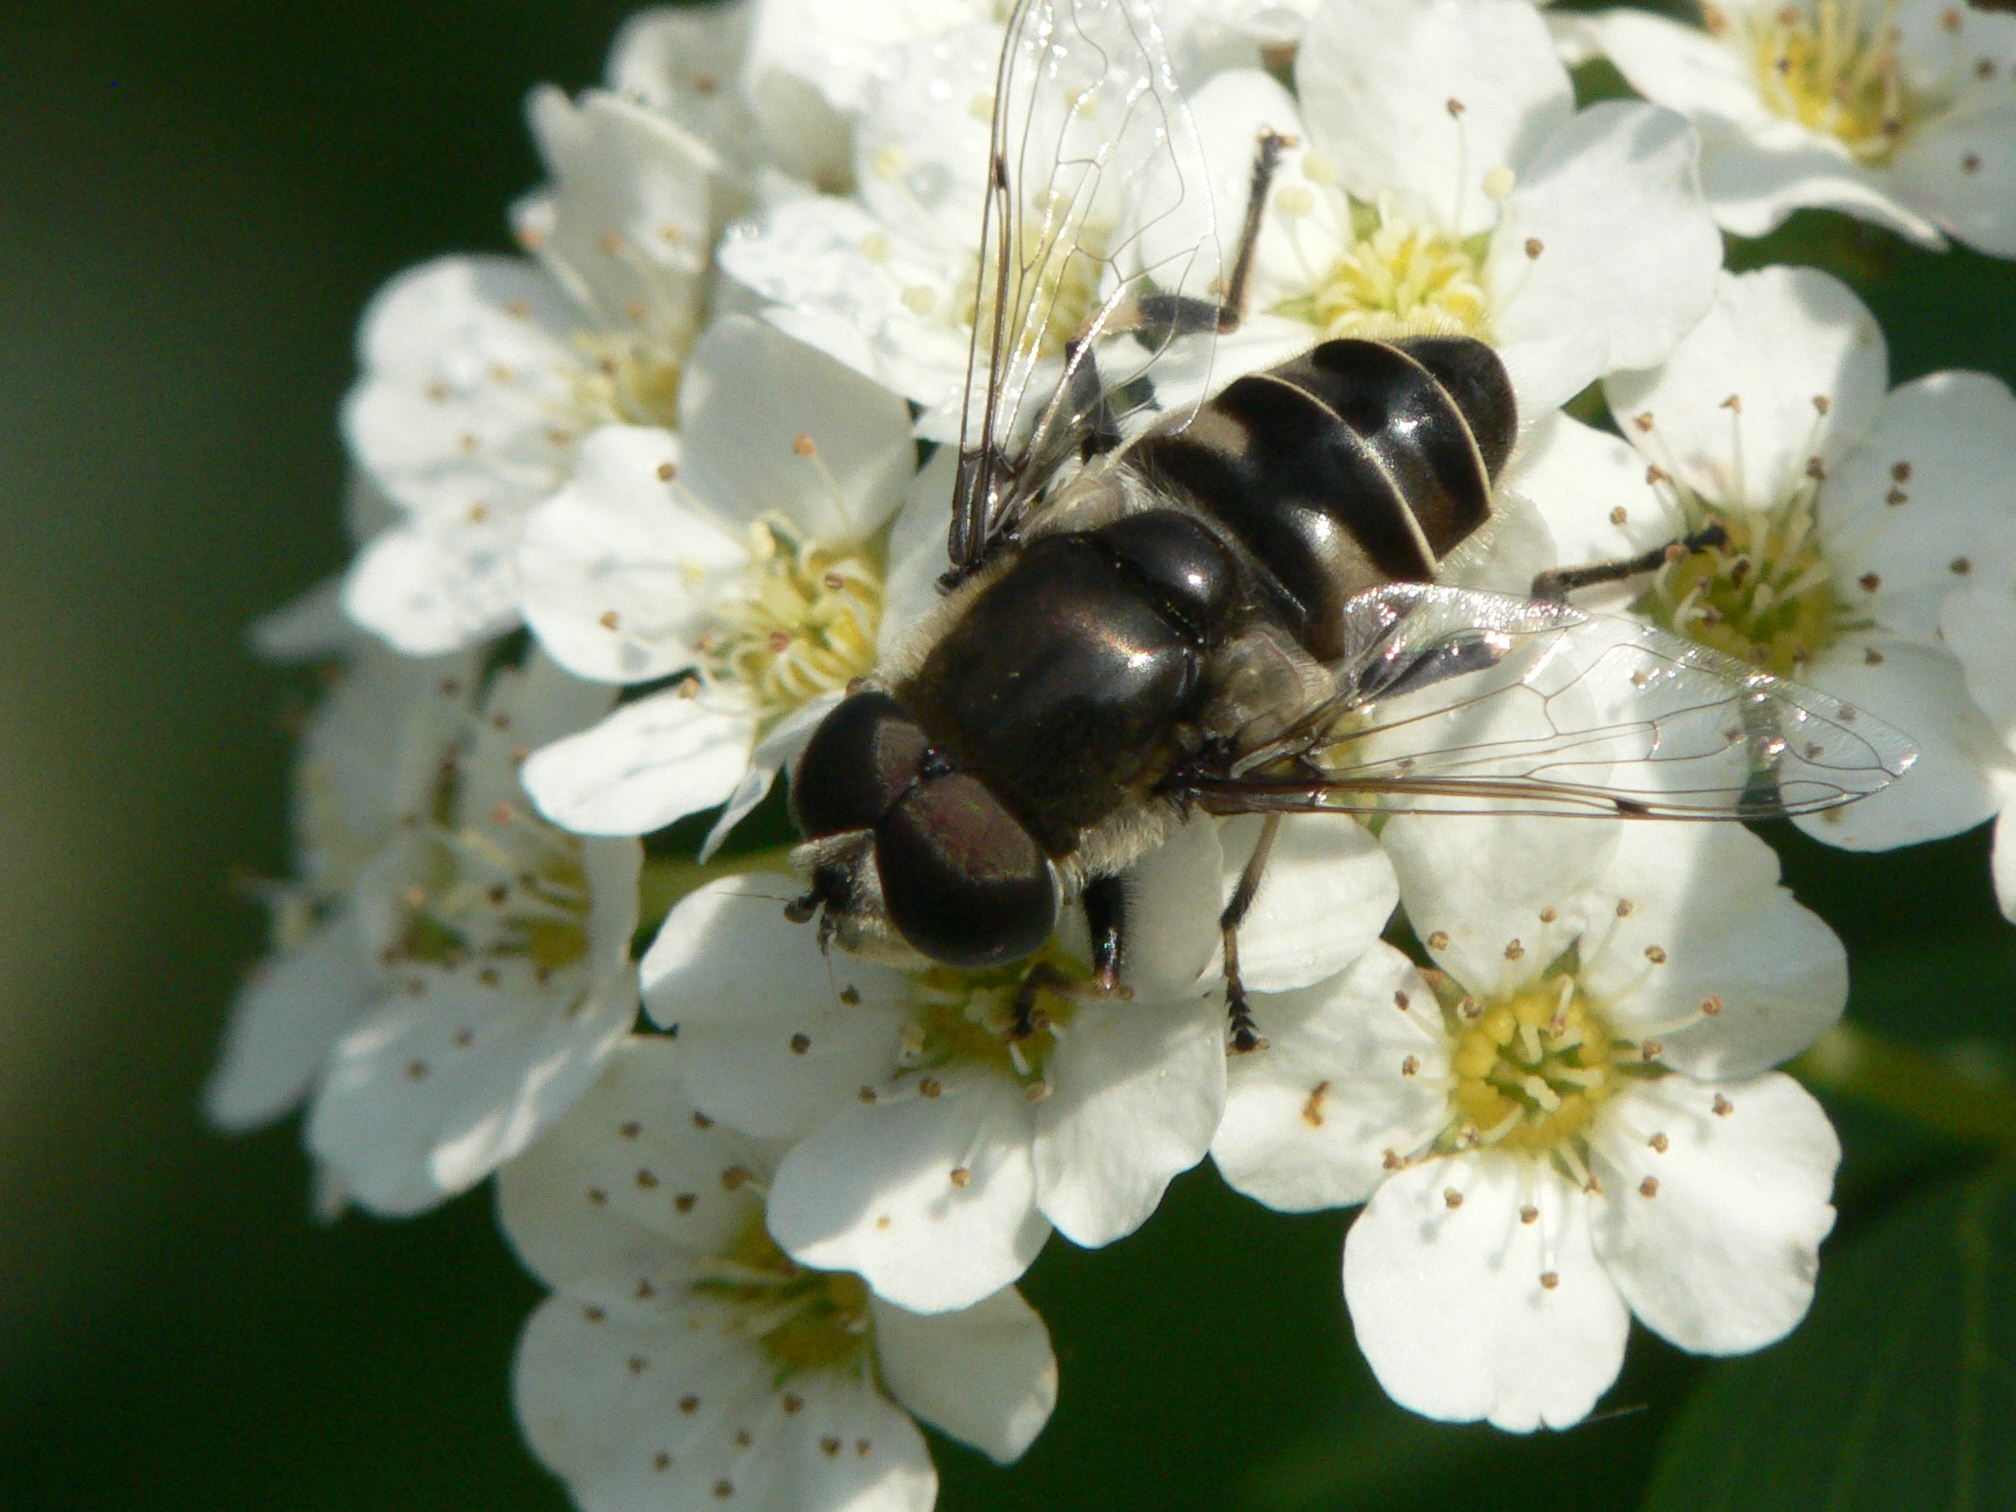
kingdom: Animalia
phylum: Arthropoda
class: Insecta
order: Diptera
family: Syrphidae
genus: Eristalis
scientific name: Eristalis dimidiata
